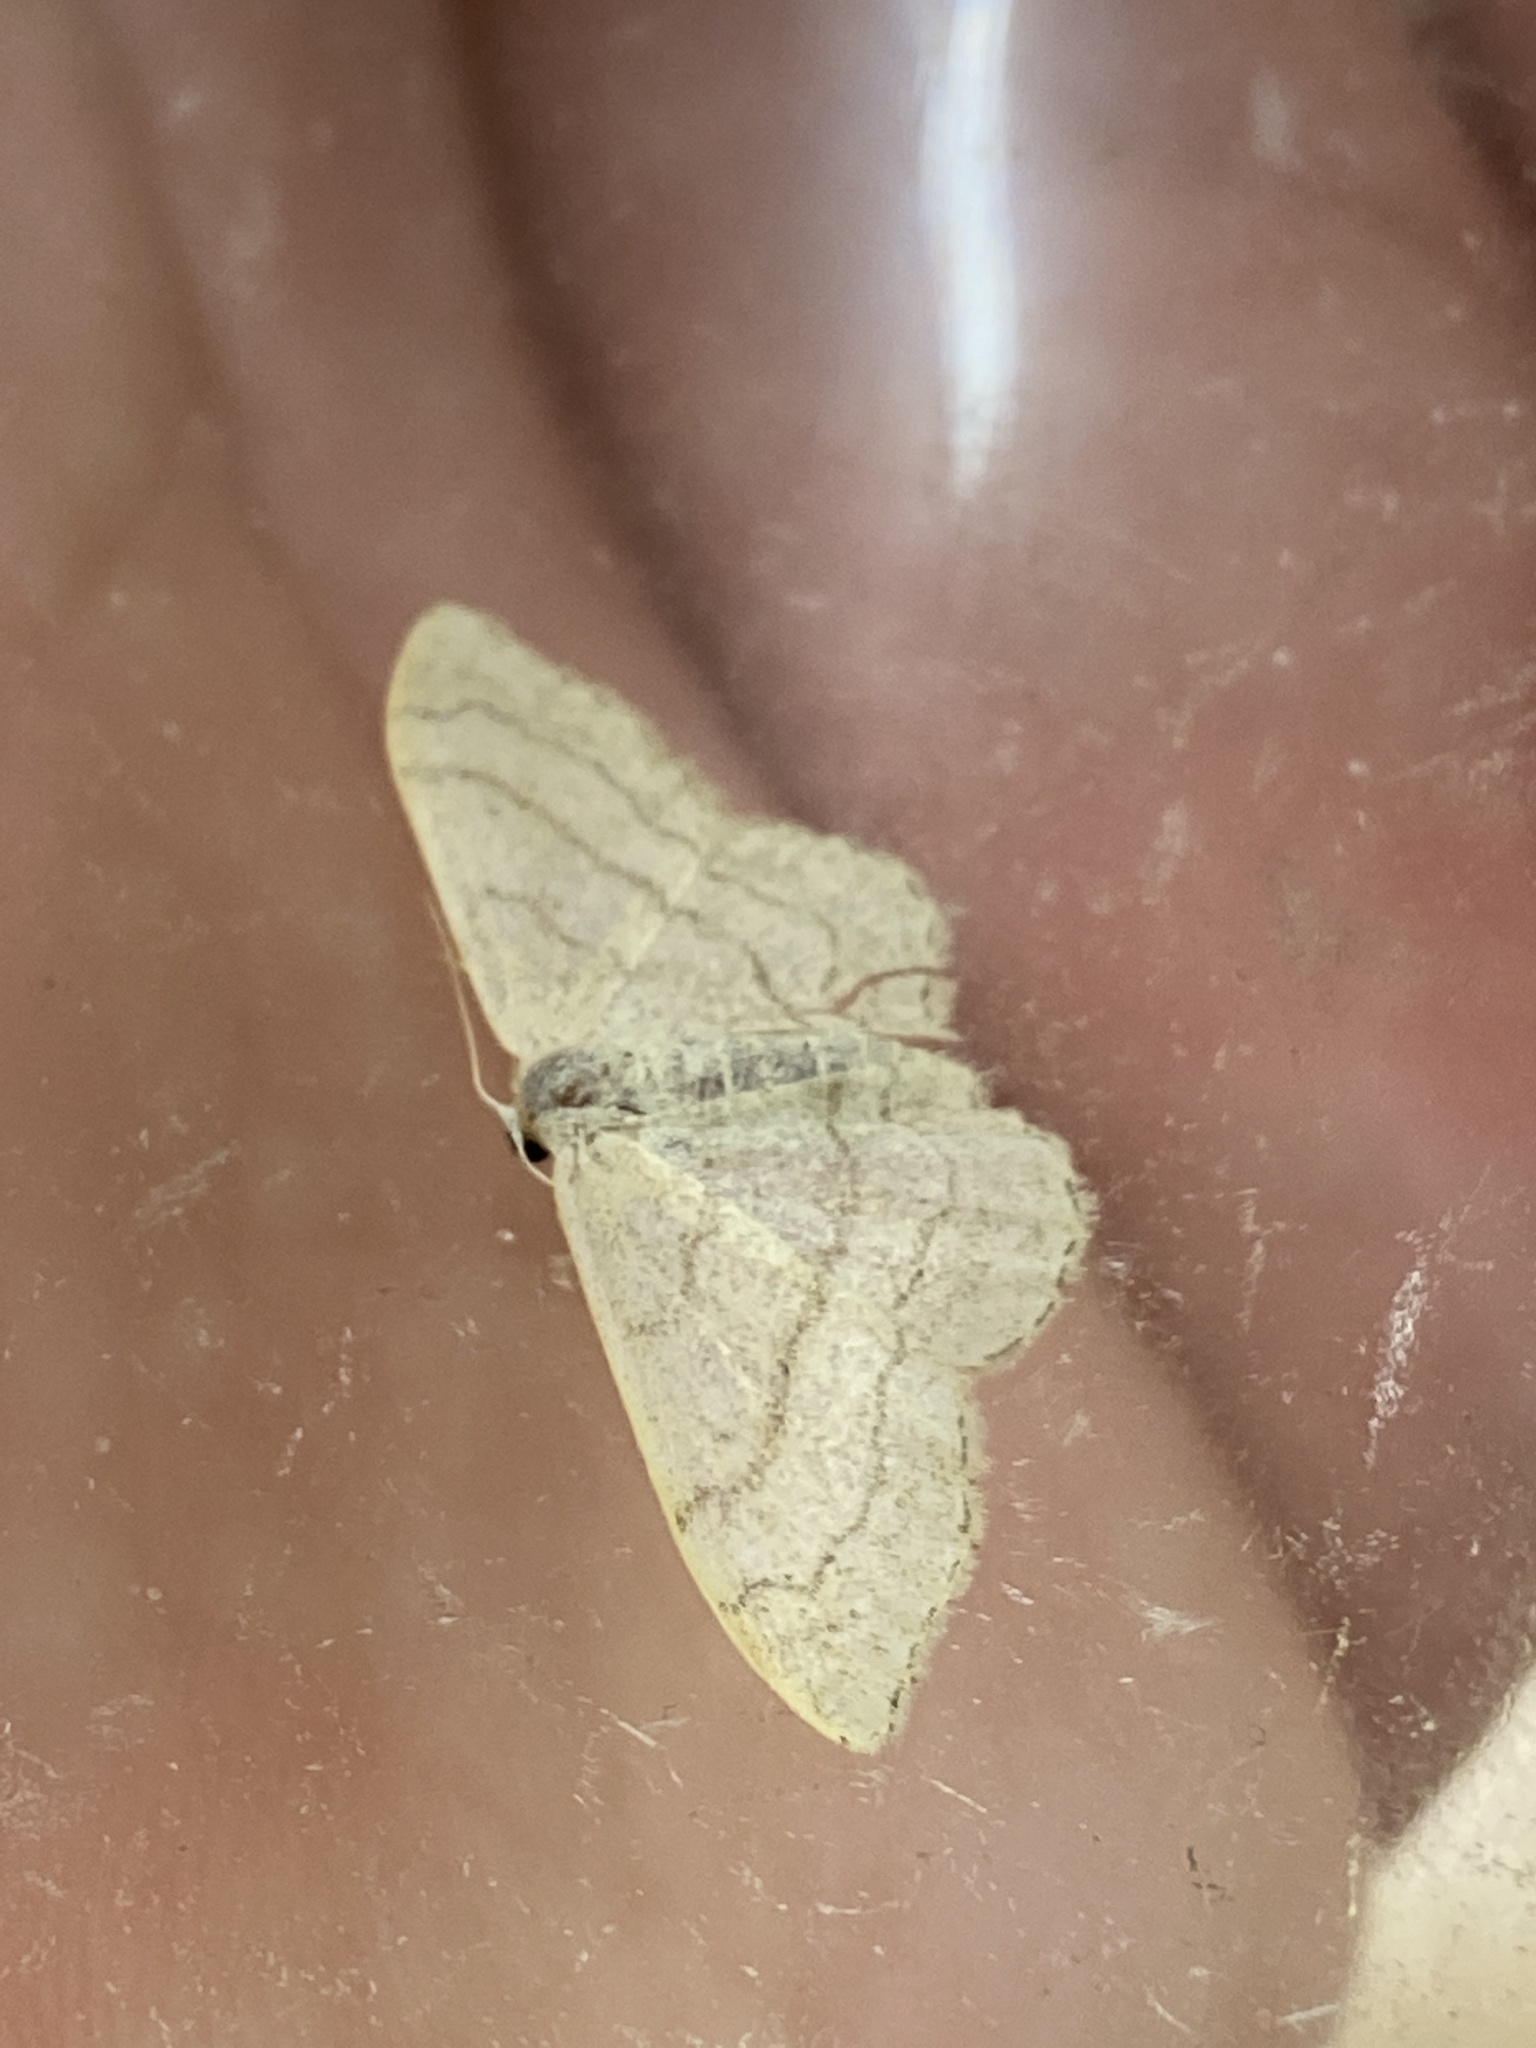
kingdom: Animalia
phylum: Arthropoda
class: Insecta
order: Lepidoptera
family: Geometridae
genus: Idaea
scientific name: Idaea aversata
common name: Riband wave
